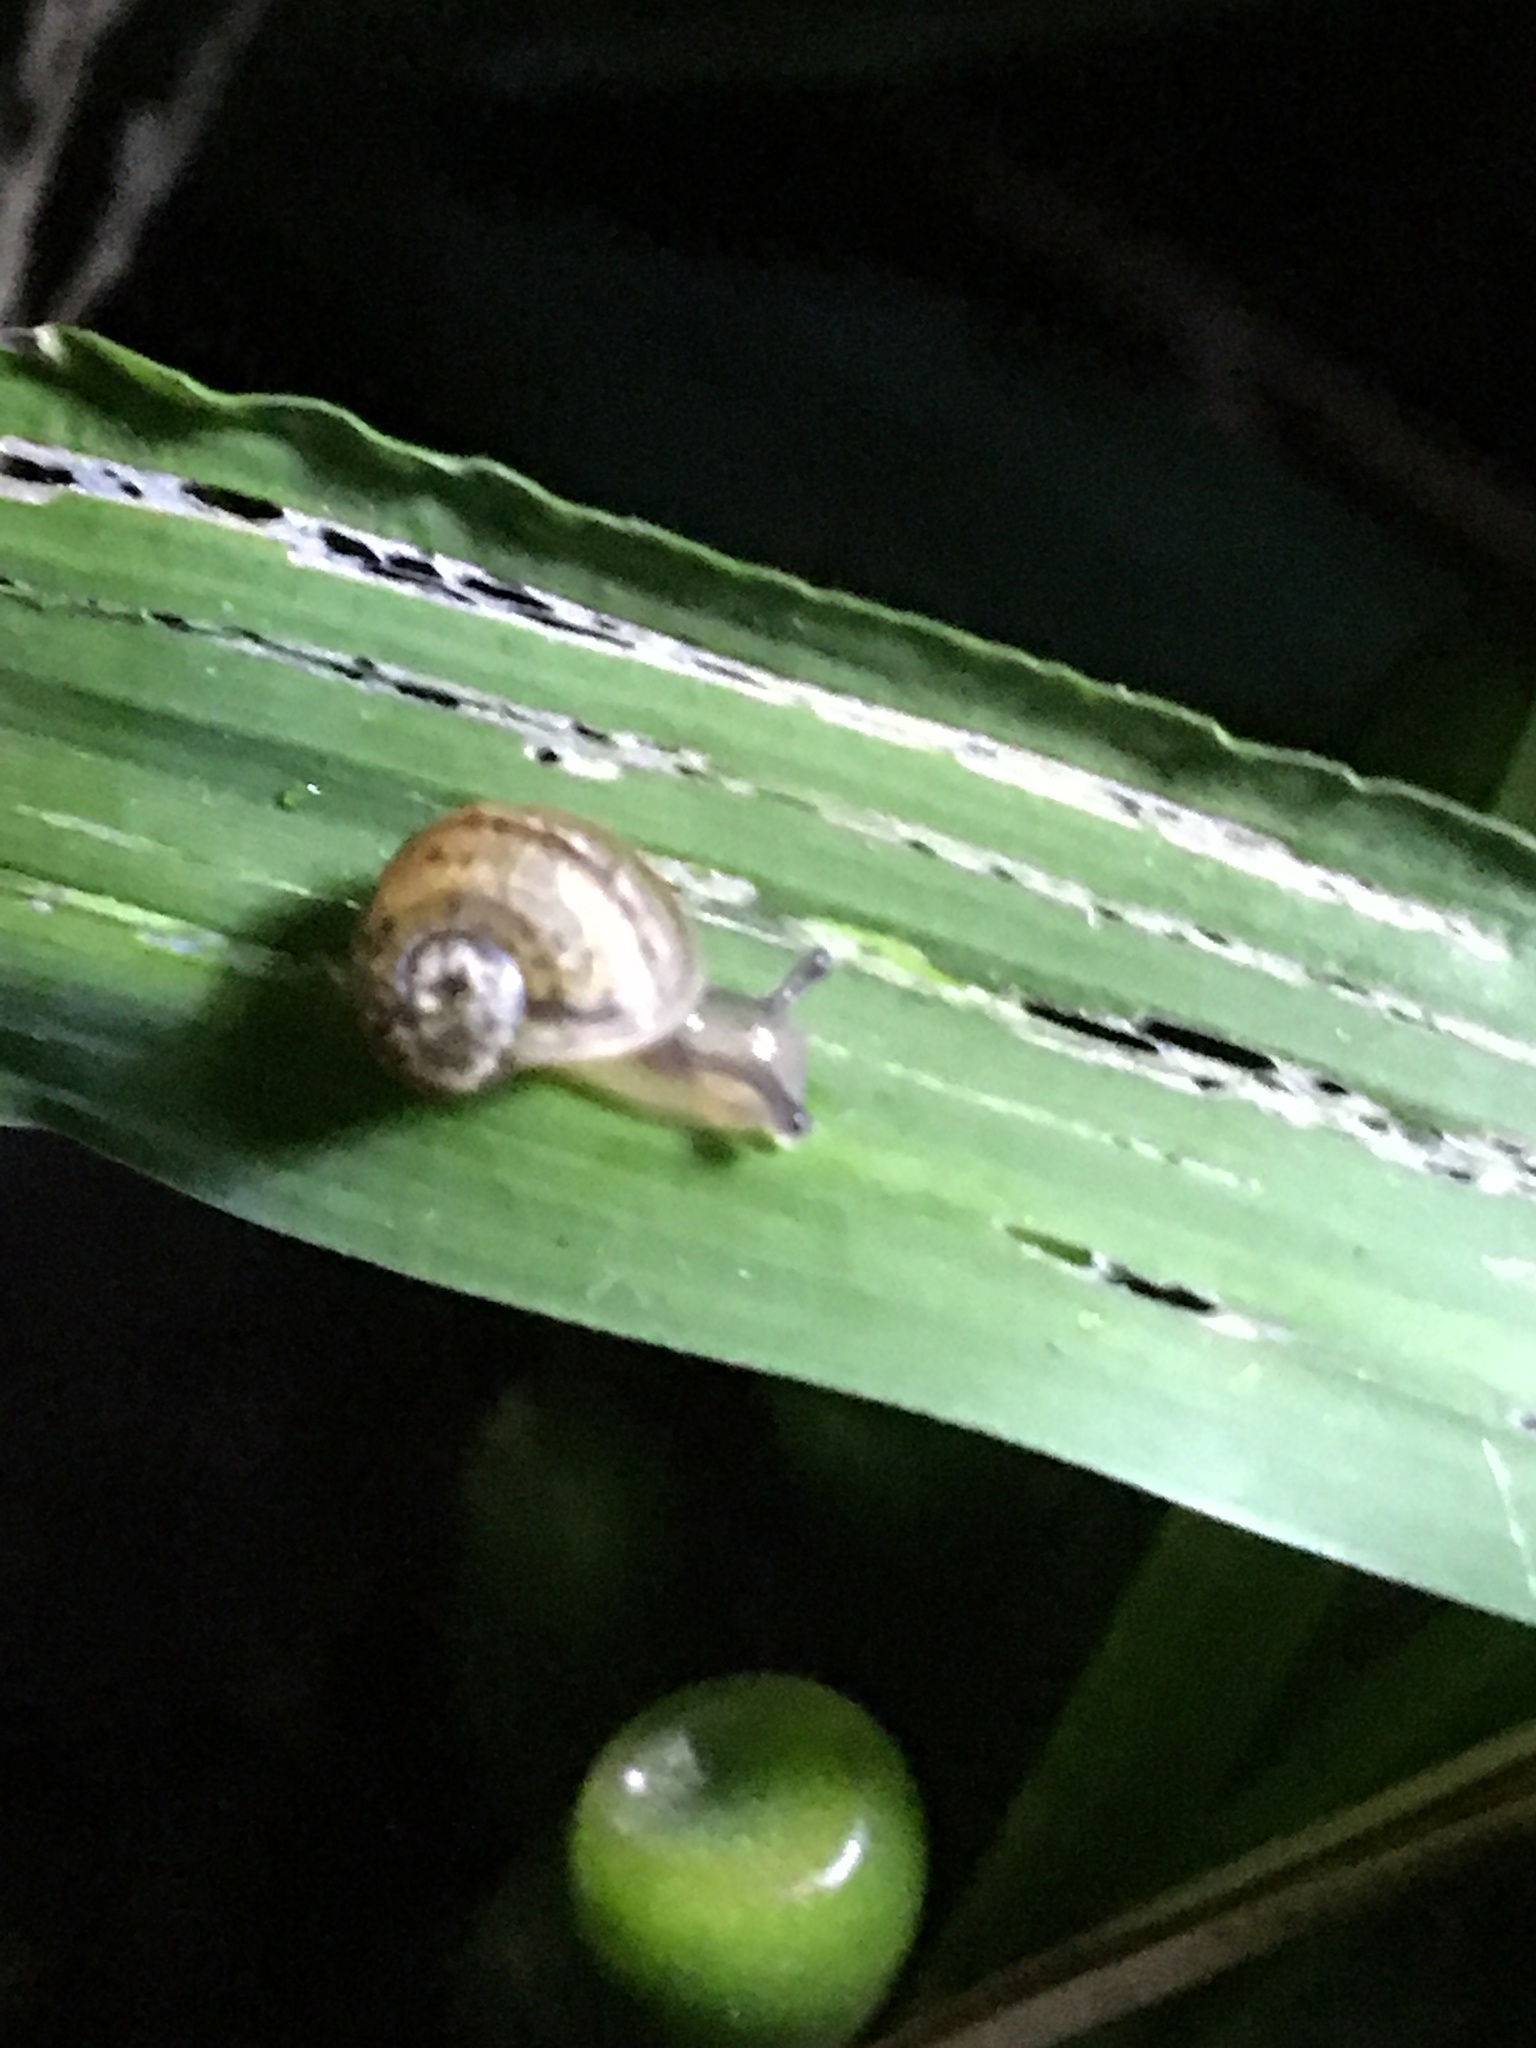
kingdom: Animalia
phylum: Mollusca
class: Gastropoda
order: Stylommatophora
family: Helicidae
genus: Cornu
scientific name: Cornu aspersum
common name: Brown garden snail
